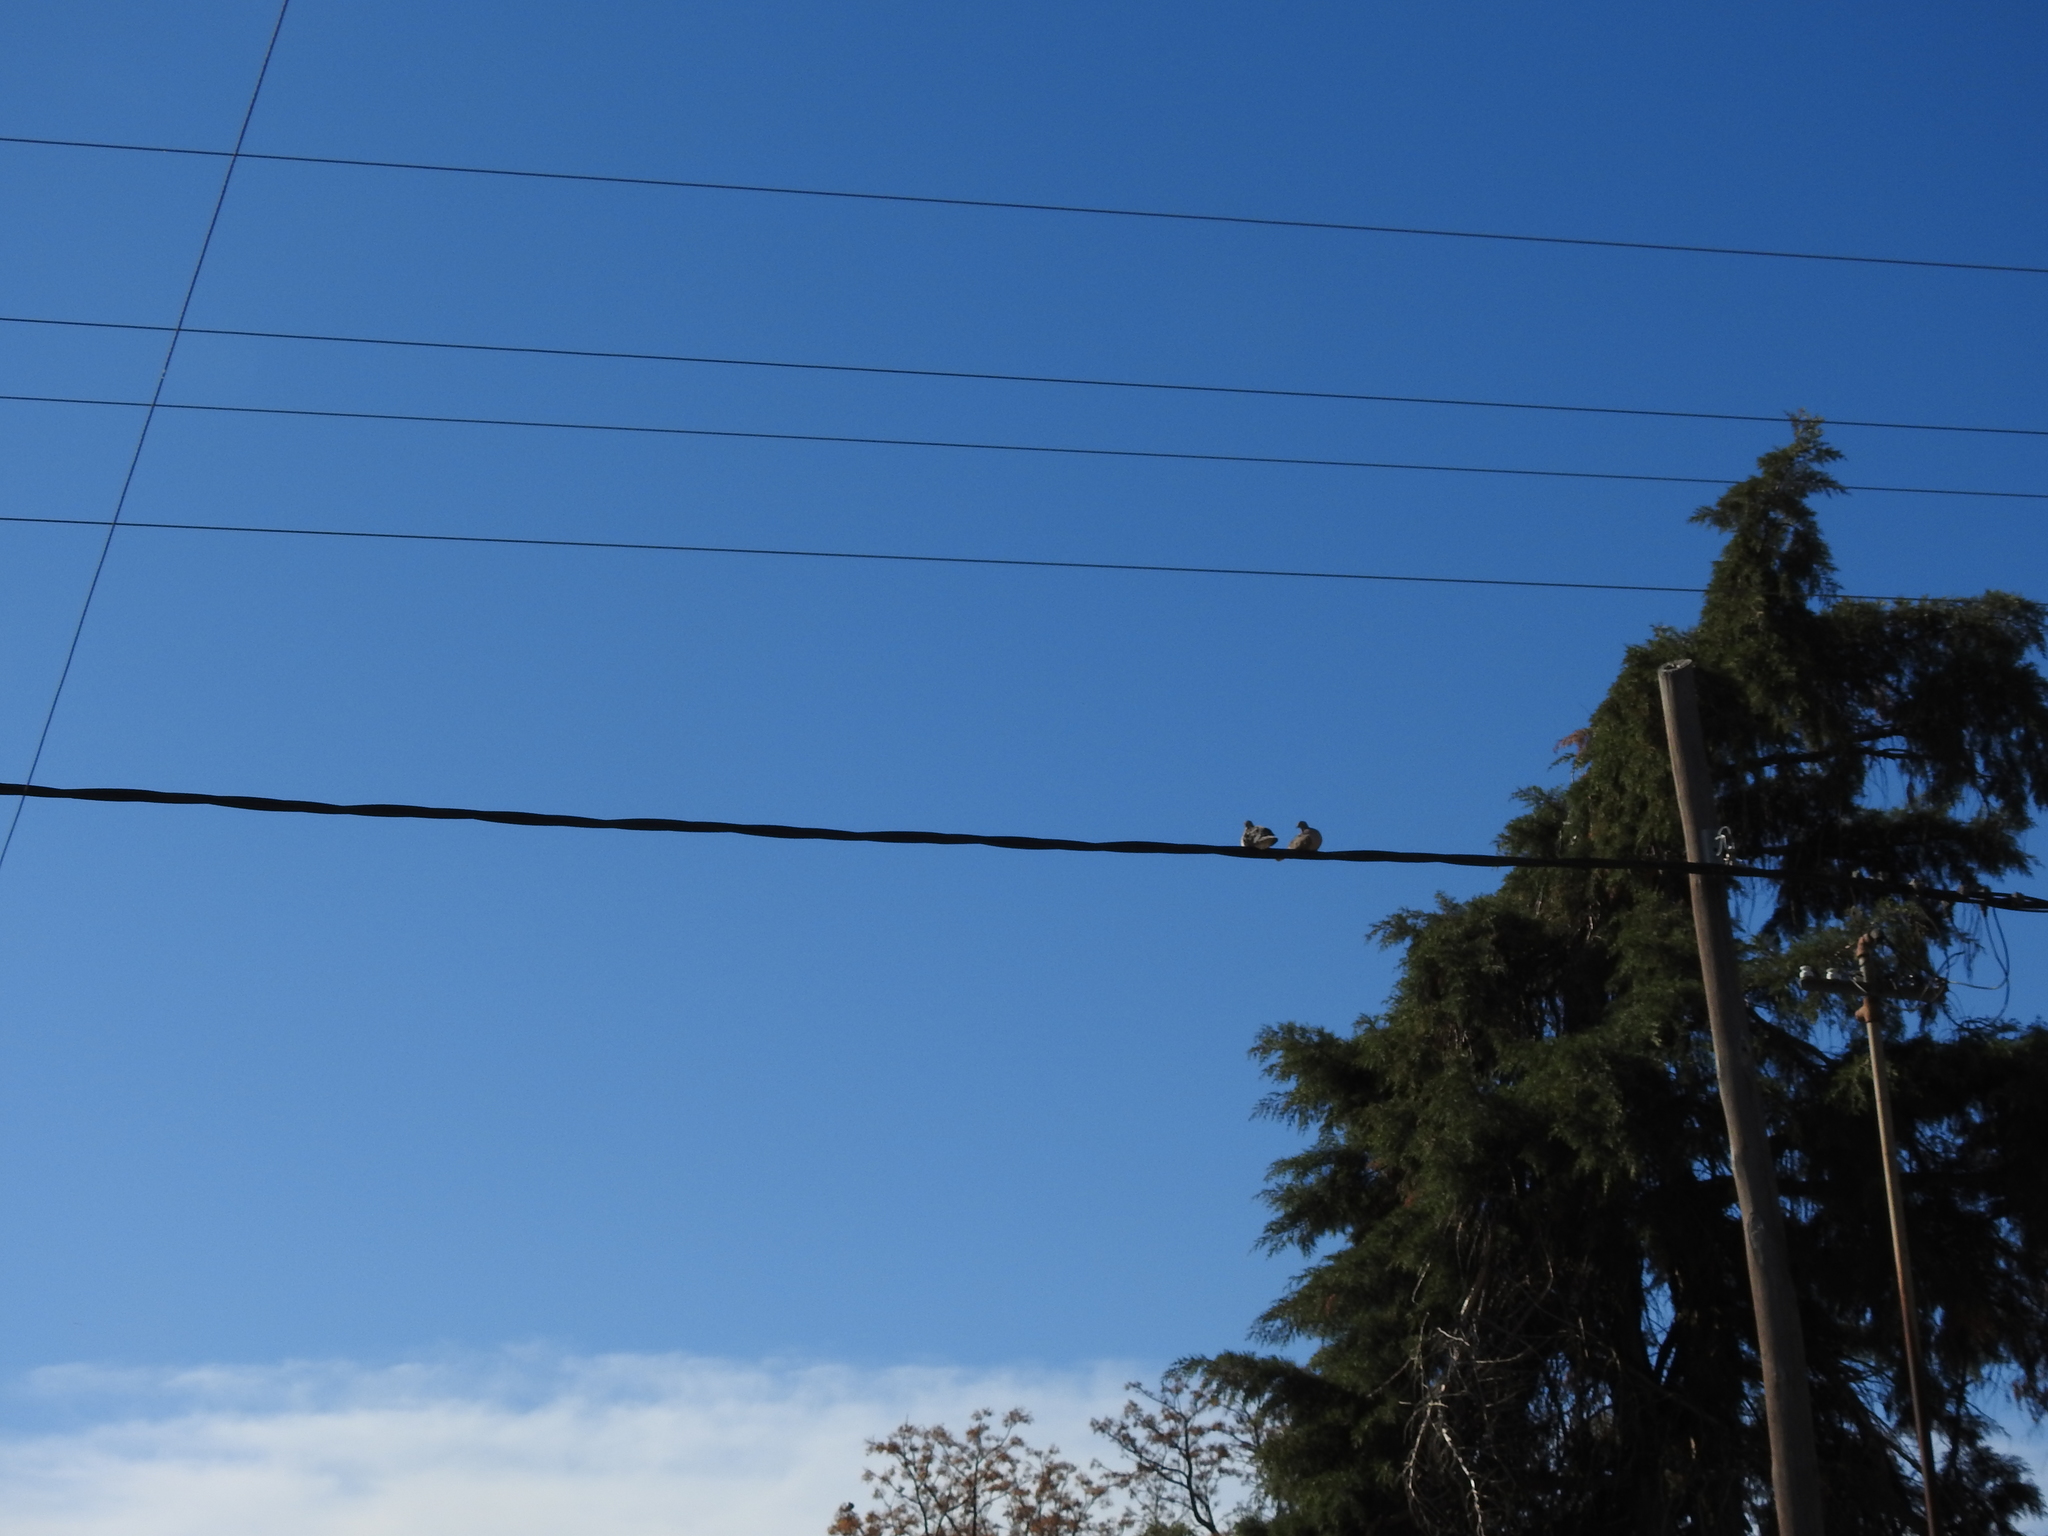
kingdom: Animalia
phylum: Chordata
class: Aves
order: Columbiformes
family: Columbidae
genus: Zenaida
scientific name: Zenaida auriculata
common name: Eared dove
